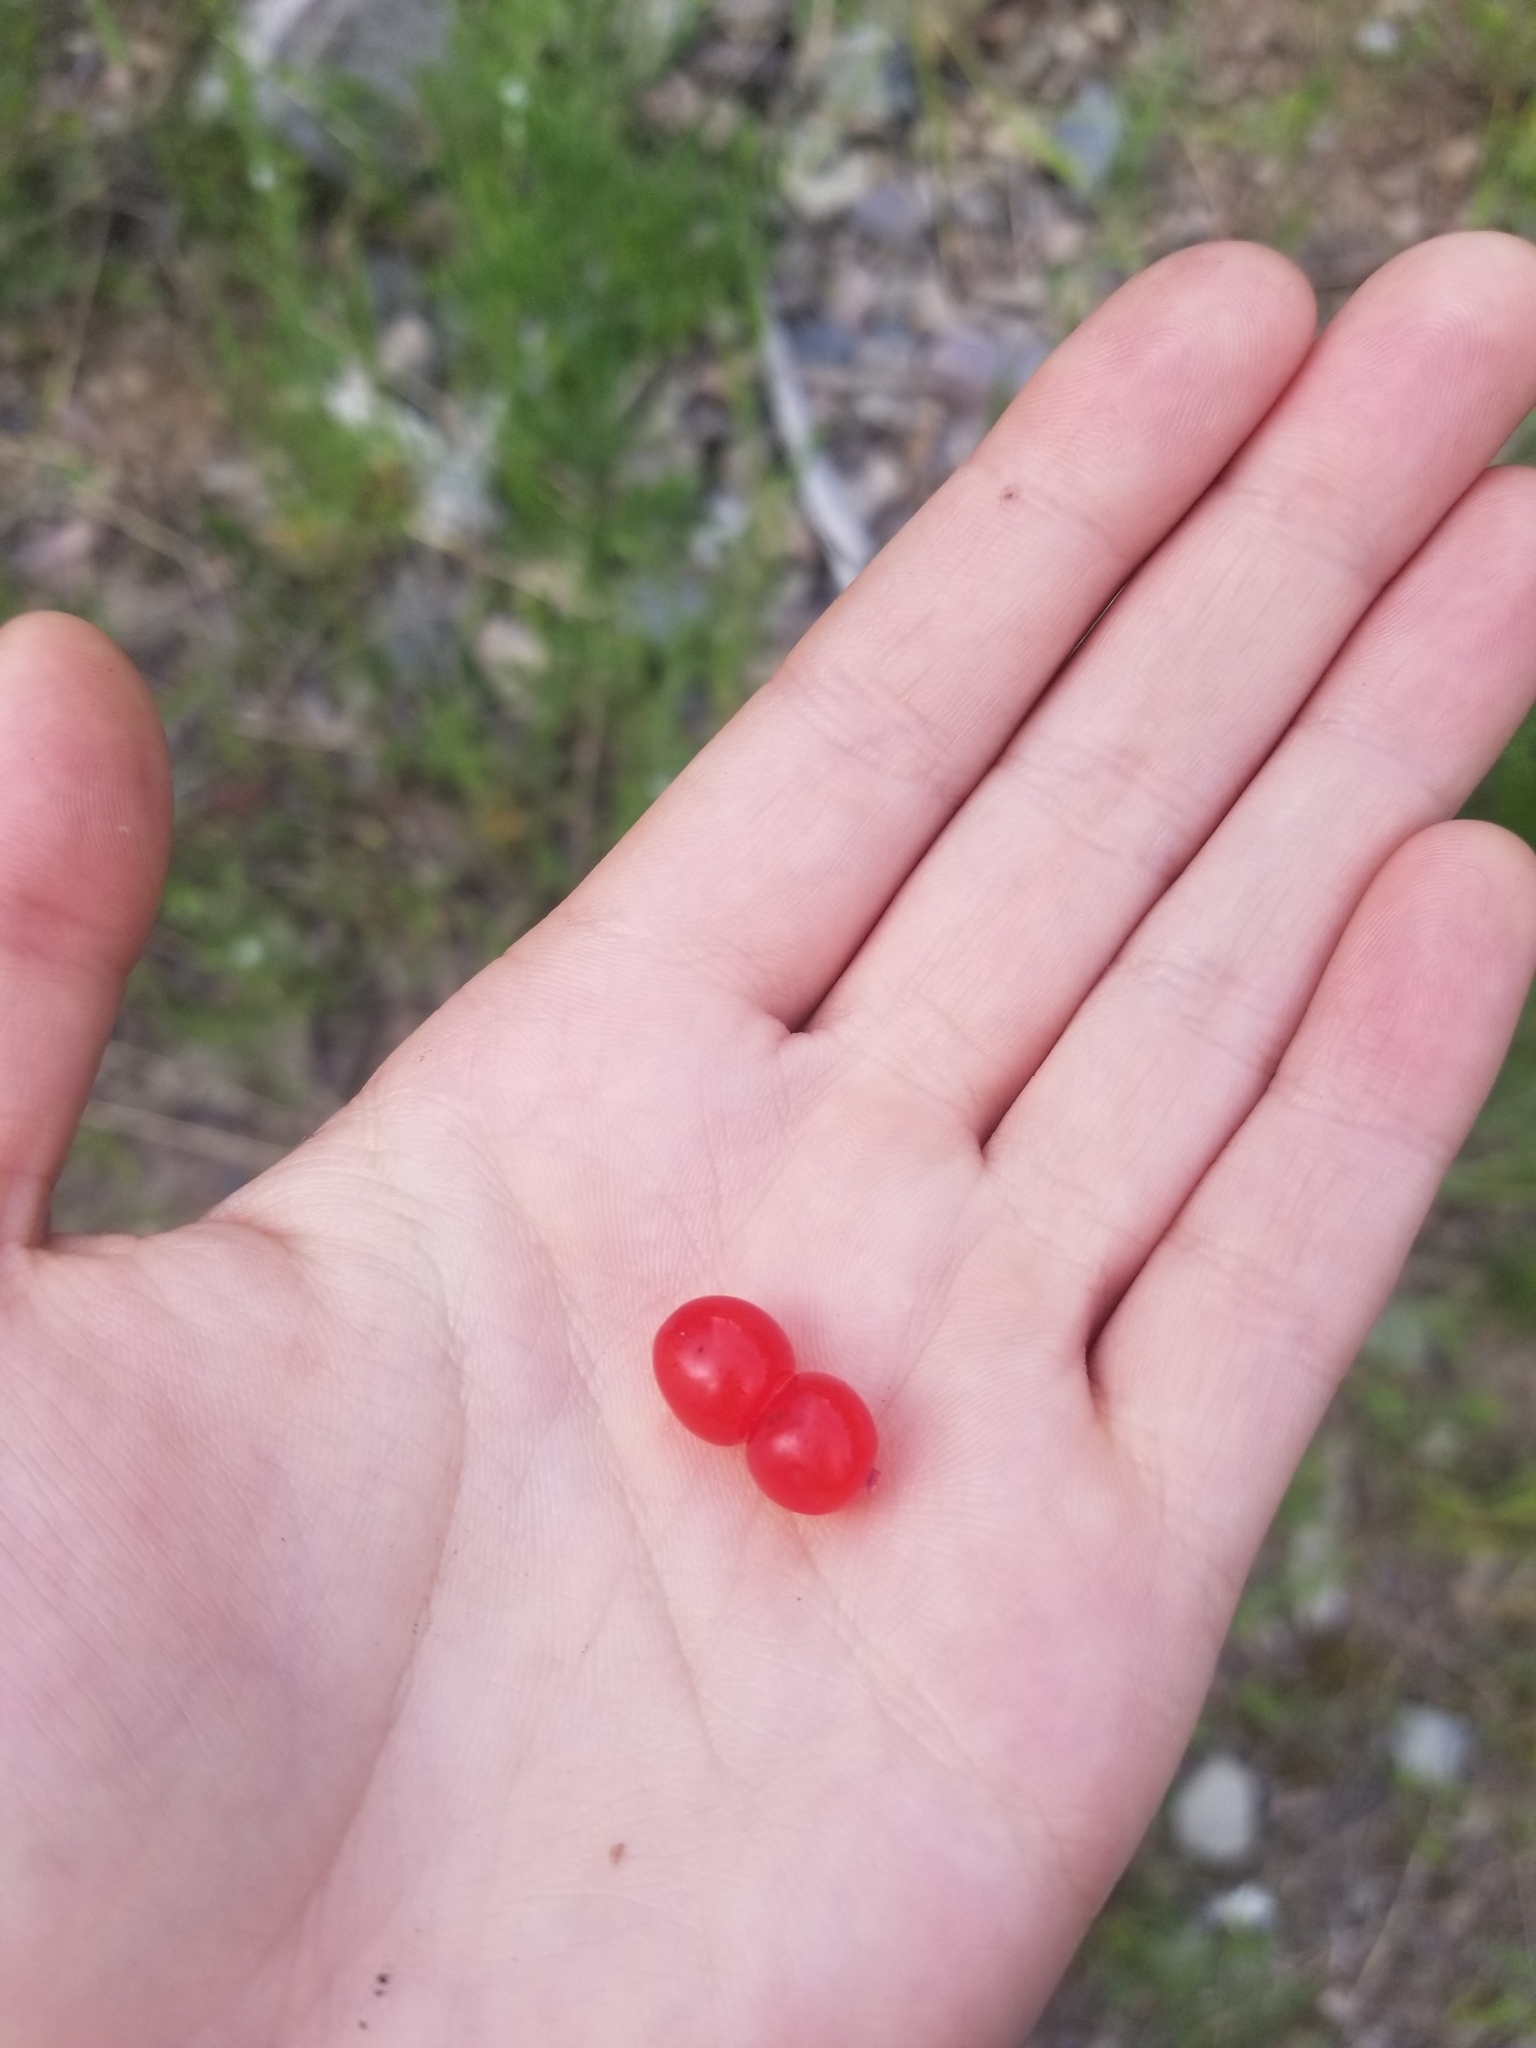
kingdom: Plantae
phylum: Tracheophyta
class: Magnoliopsida
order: Dipsacales
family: Caprifoliaceae
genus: Lonicera
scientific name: Lonicera utahensis
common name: Utah honeysuckle
